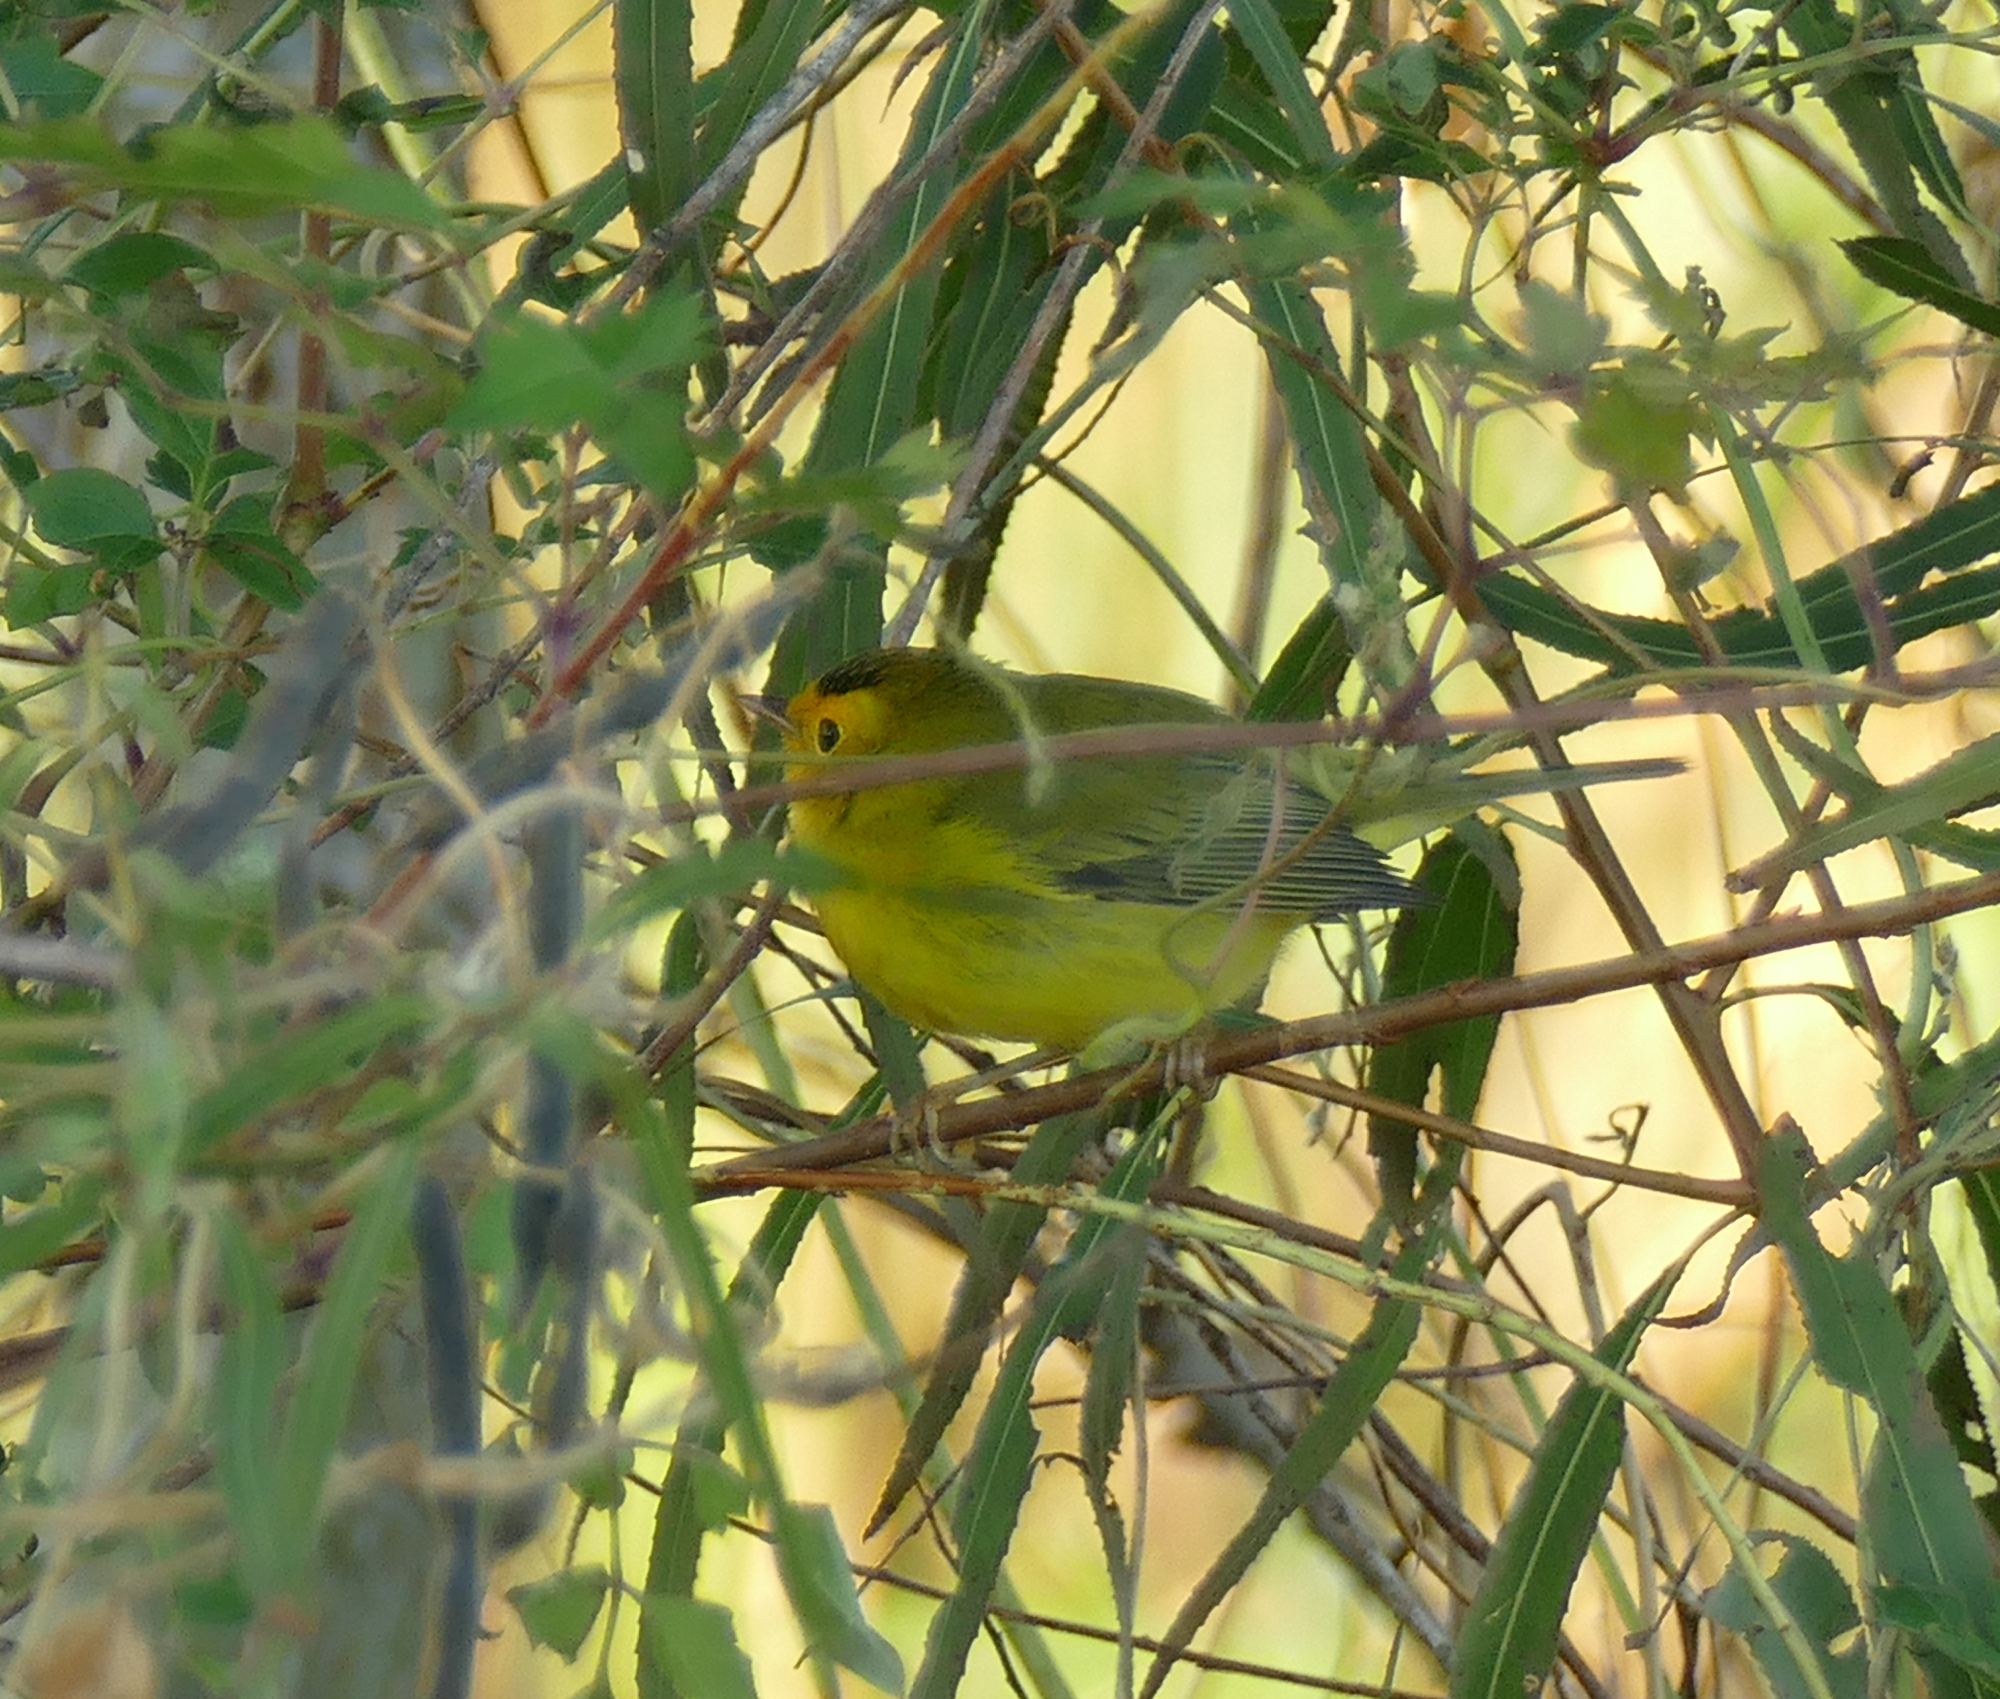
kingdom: Animalia
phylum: Chordata
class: Aves
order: Passeriformes
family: Parulidae
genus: Cardellina
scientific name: Cardellina pusilla
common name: Wilson's warbler
